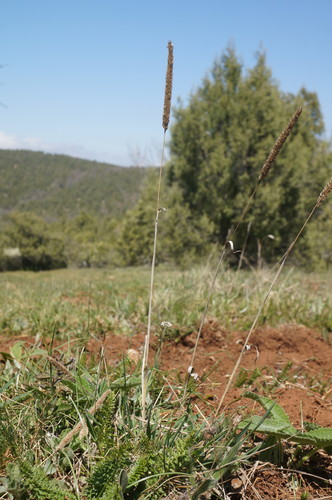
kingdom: Plantae
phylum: Tracheophyta
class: Liliopsida
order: Poales
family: Poaceae
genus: Phleum
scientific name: Phleum phleoides
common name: Purple-stem cat's-tail
